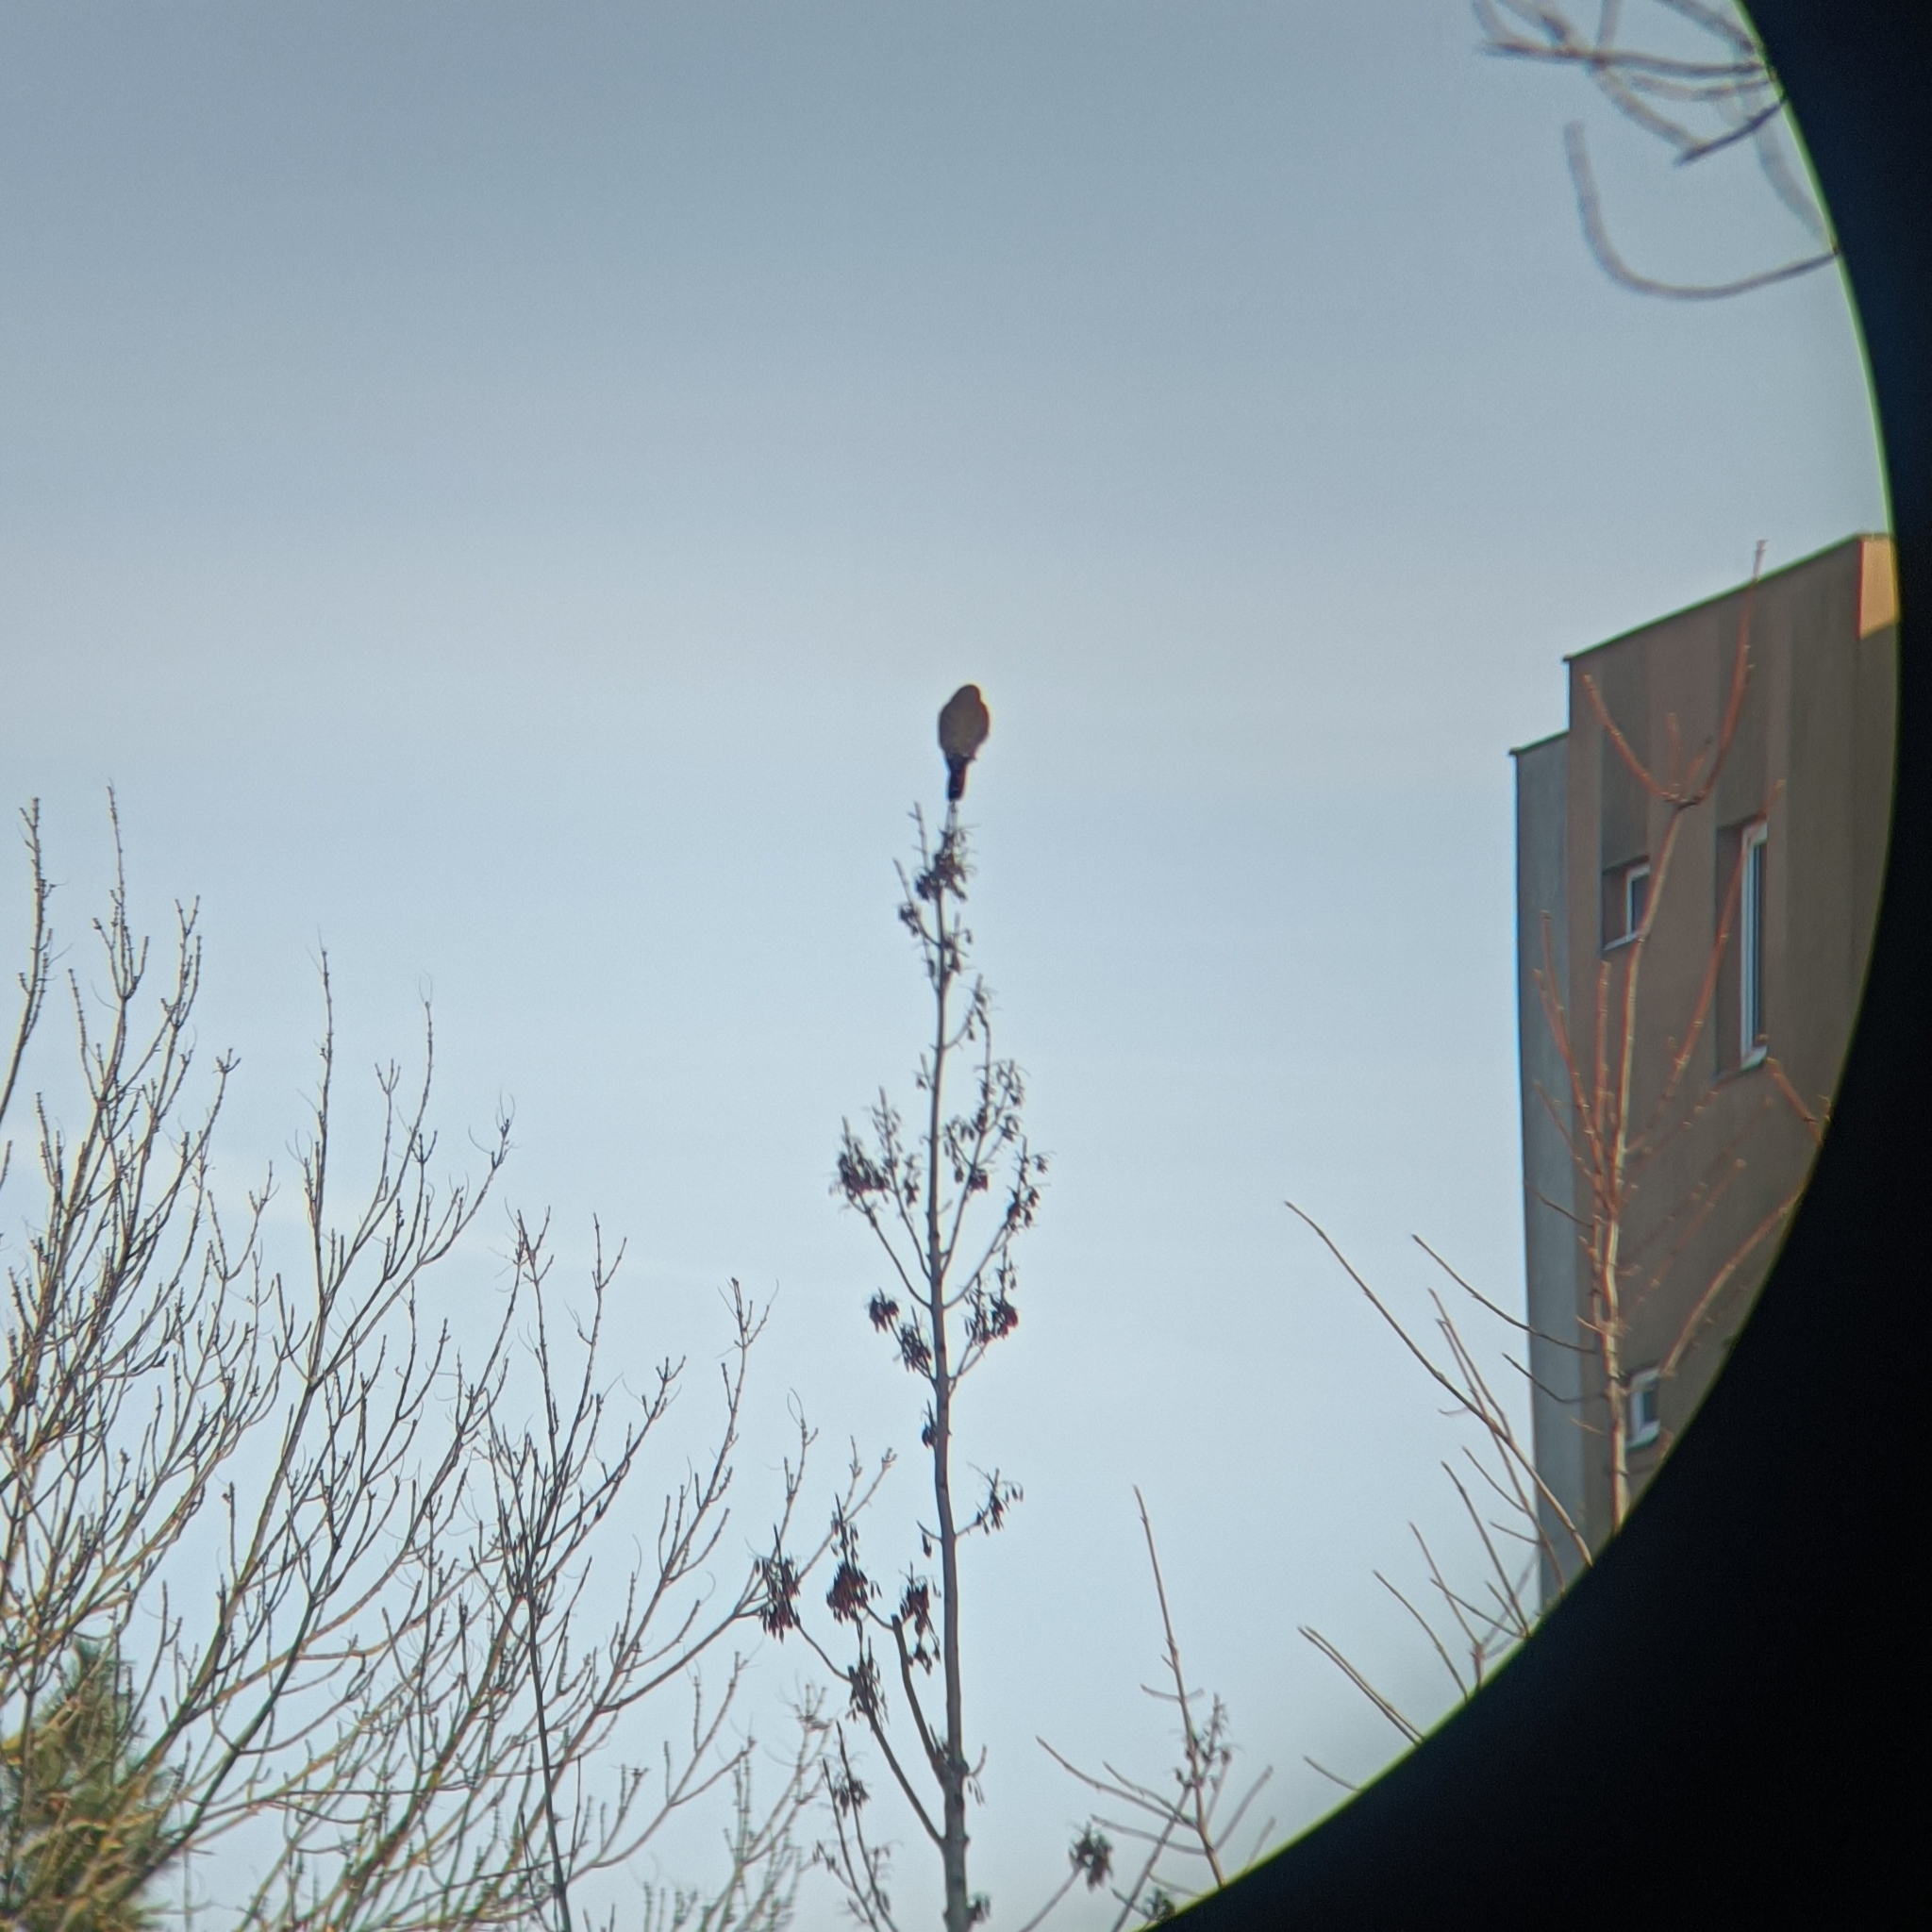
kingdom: Animalia
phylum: Chordata
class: Aves
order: Falconiformes
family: Falconidae
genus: Falco
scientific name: Falco tinnunculus
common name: Common kestrel
